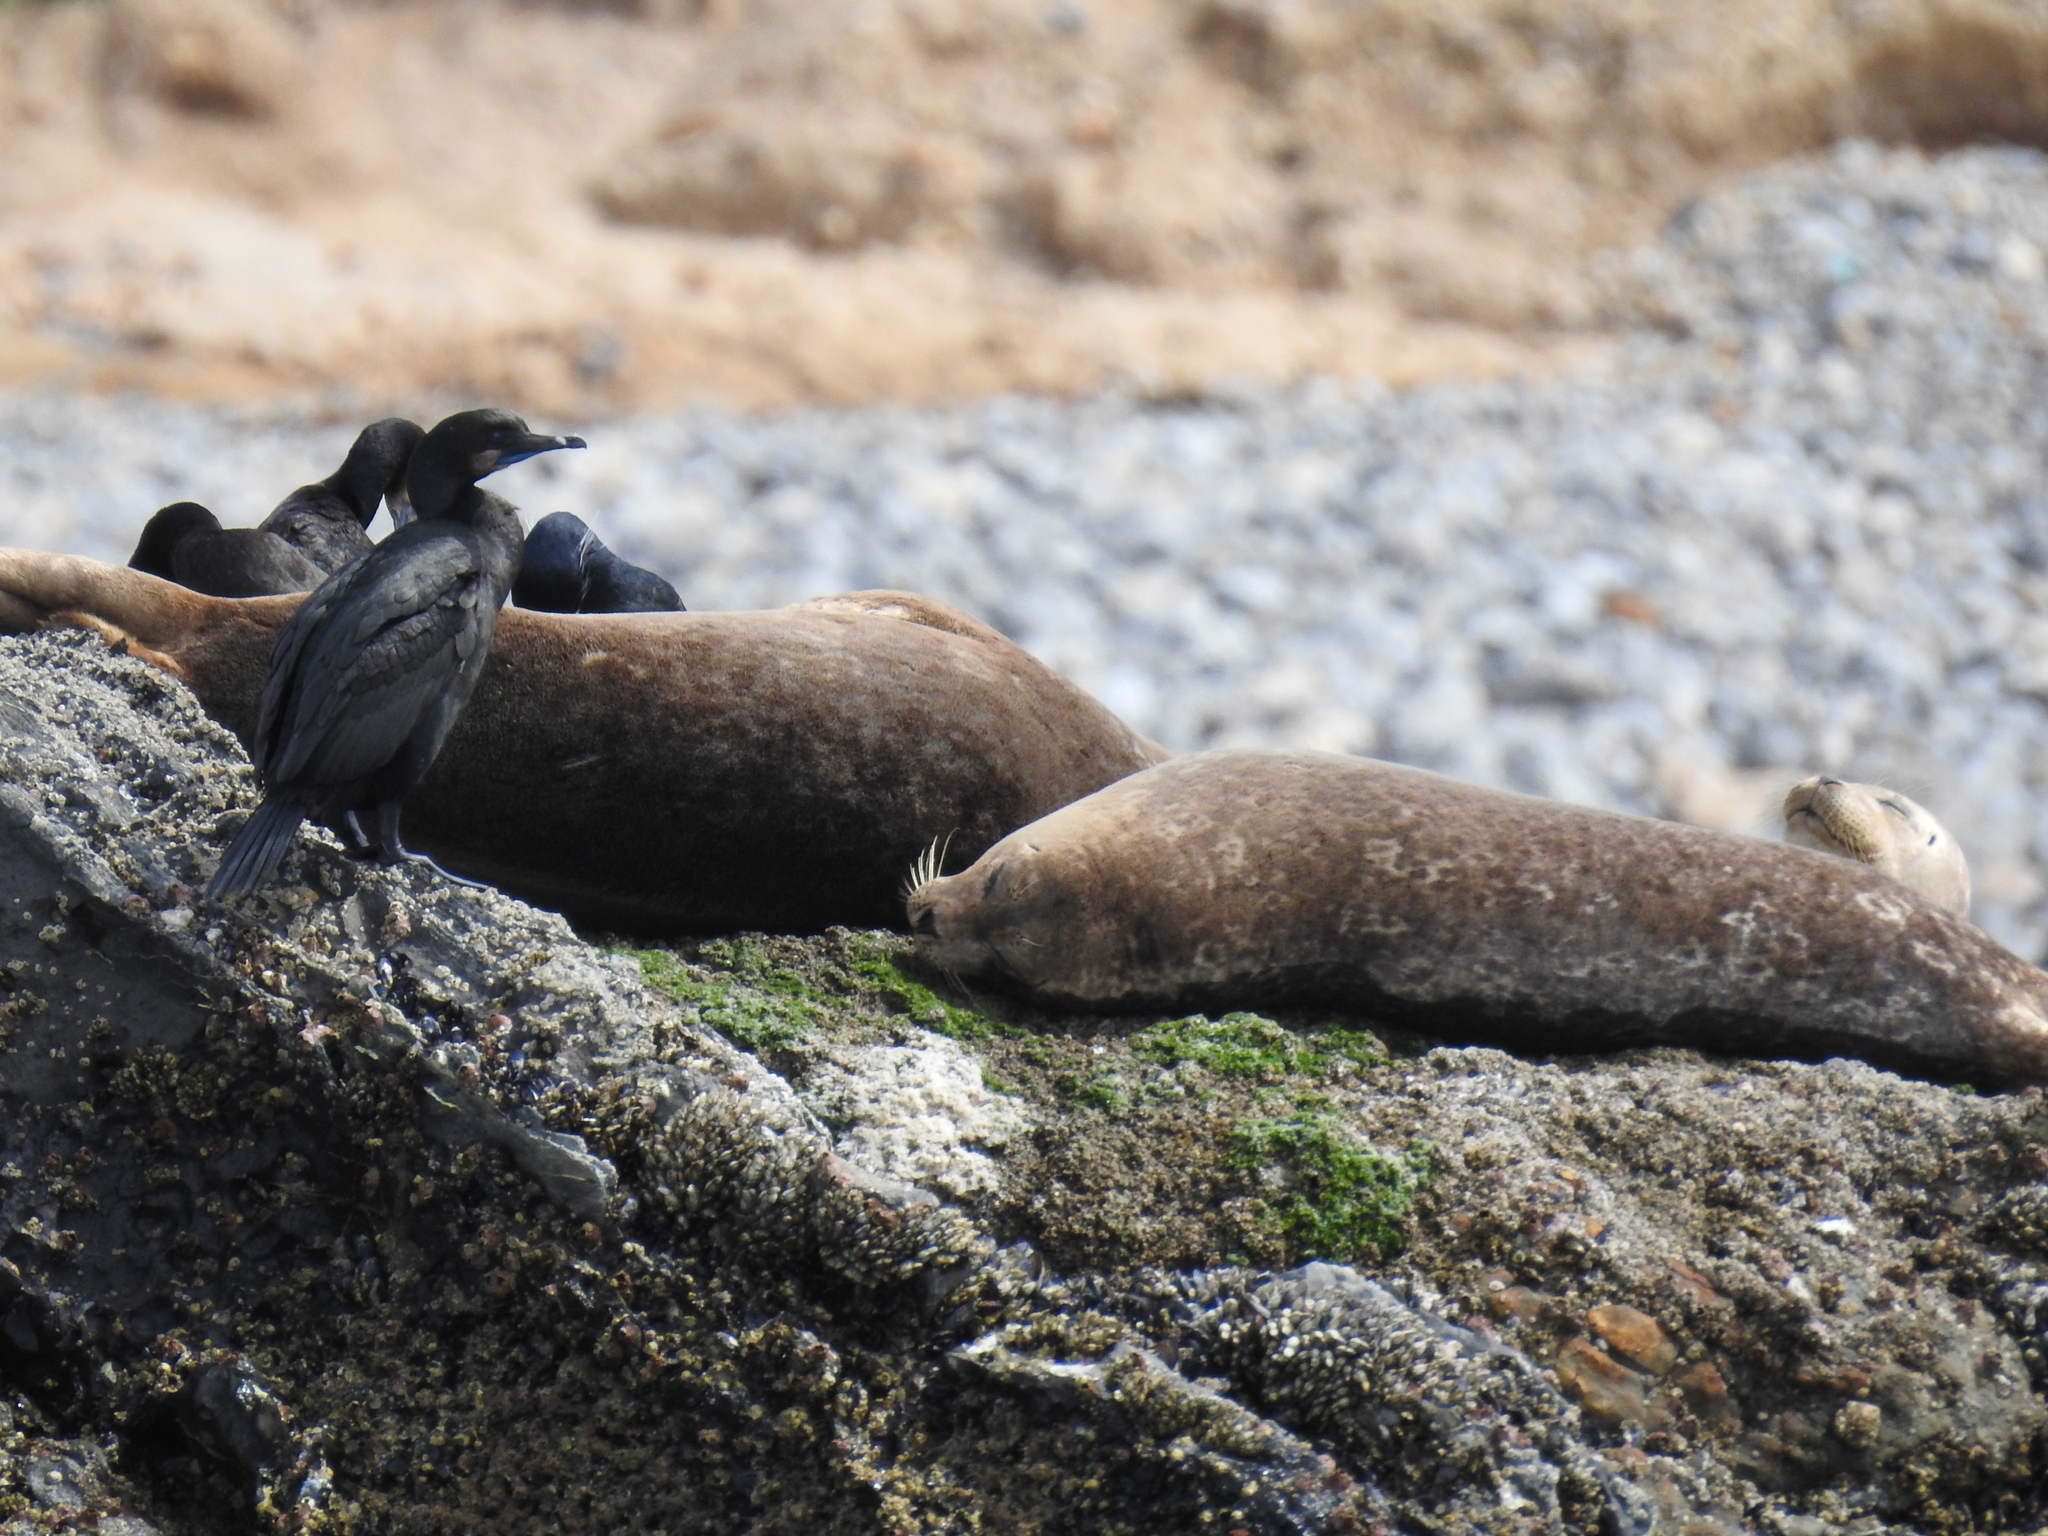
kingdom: Animalia
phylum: Chordata
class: Mammalia
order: Carnivora
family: Phocidae
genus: Phoca
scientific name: Phoca vitulina
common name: Harbor seal
